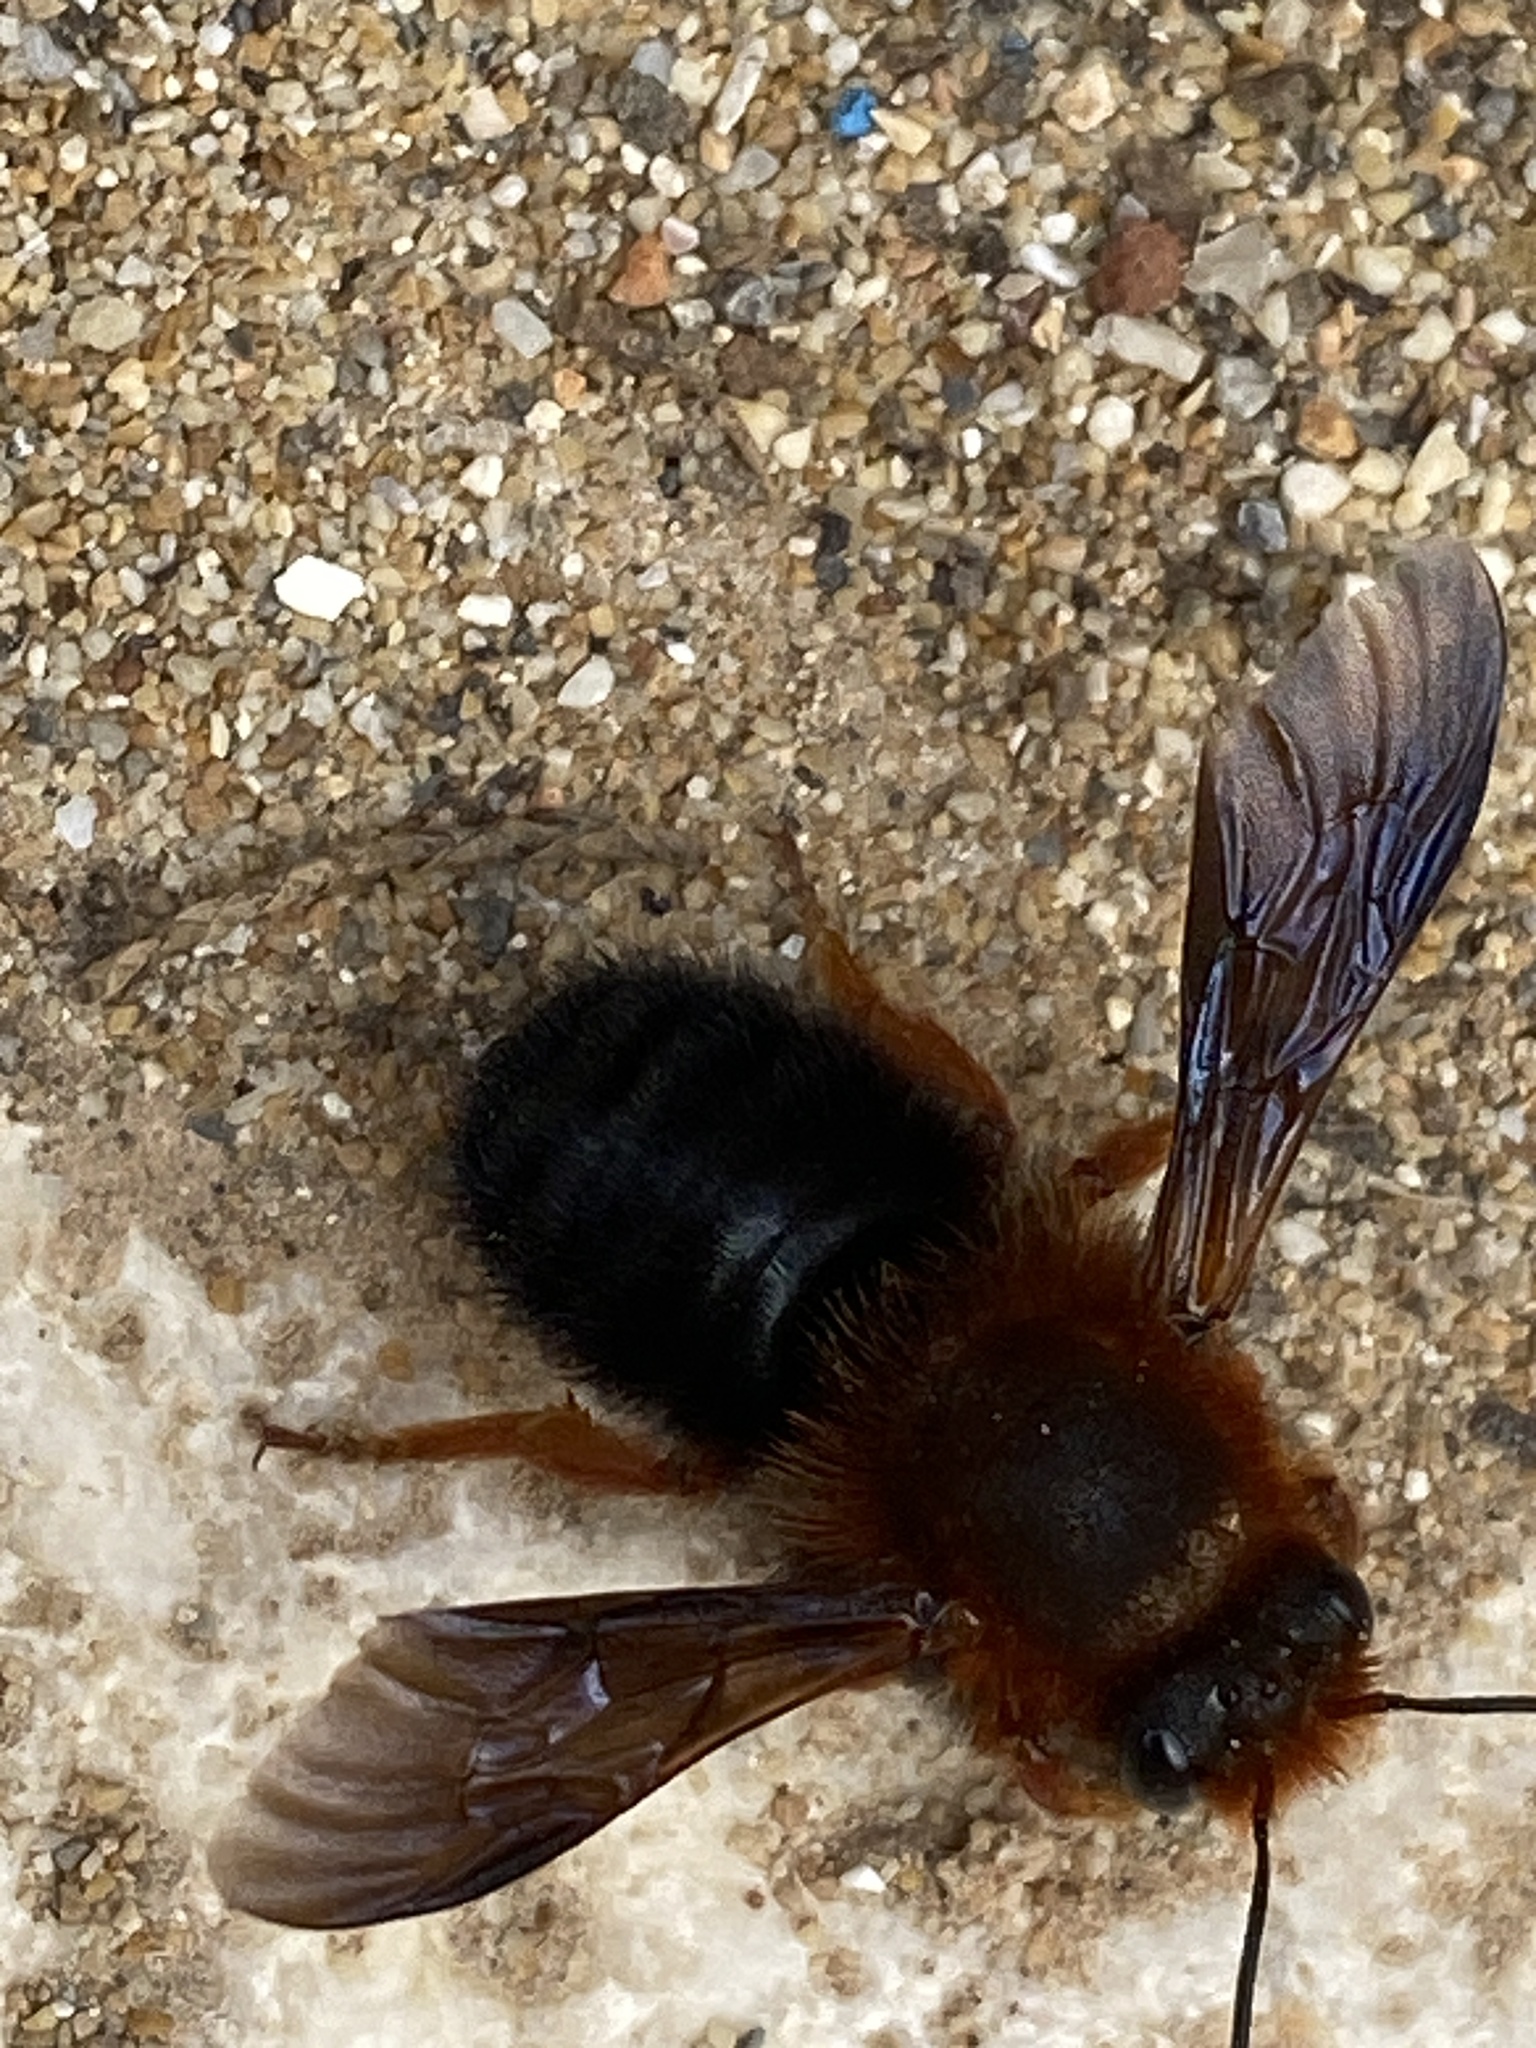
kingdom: Animalia
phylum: Arthropoda
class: Insecta
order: Hymenoptera
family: Megachilidae
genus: Megachile
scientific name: Megachile sicula
